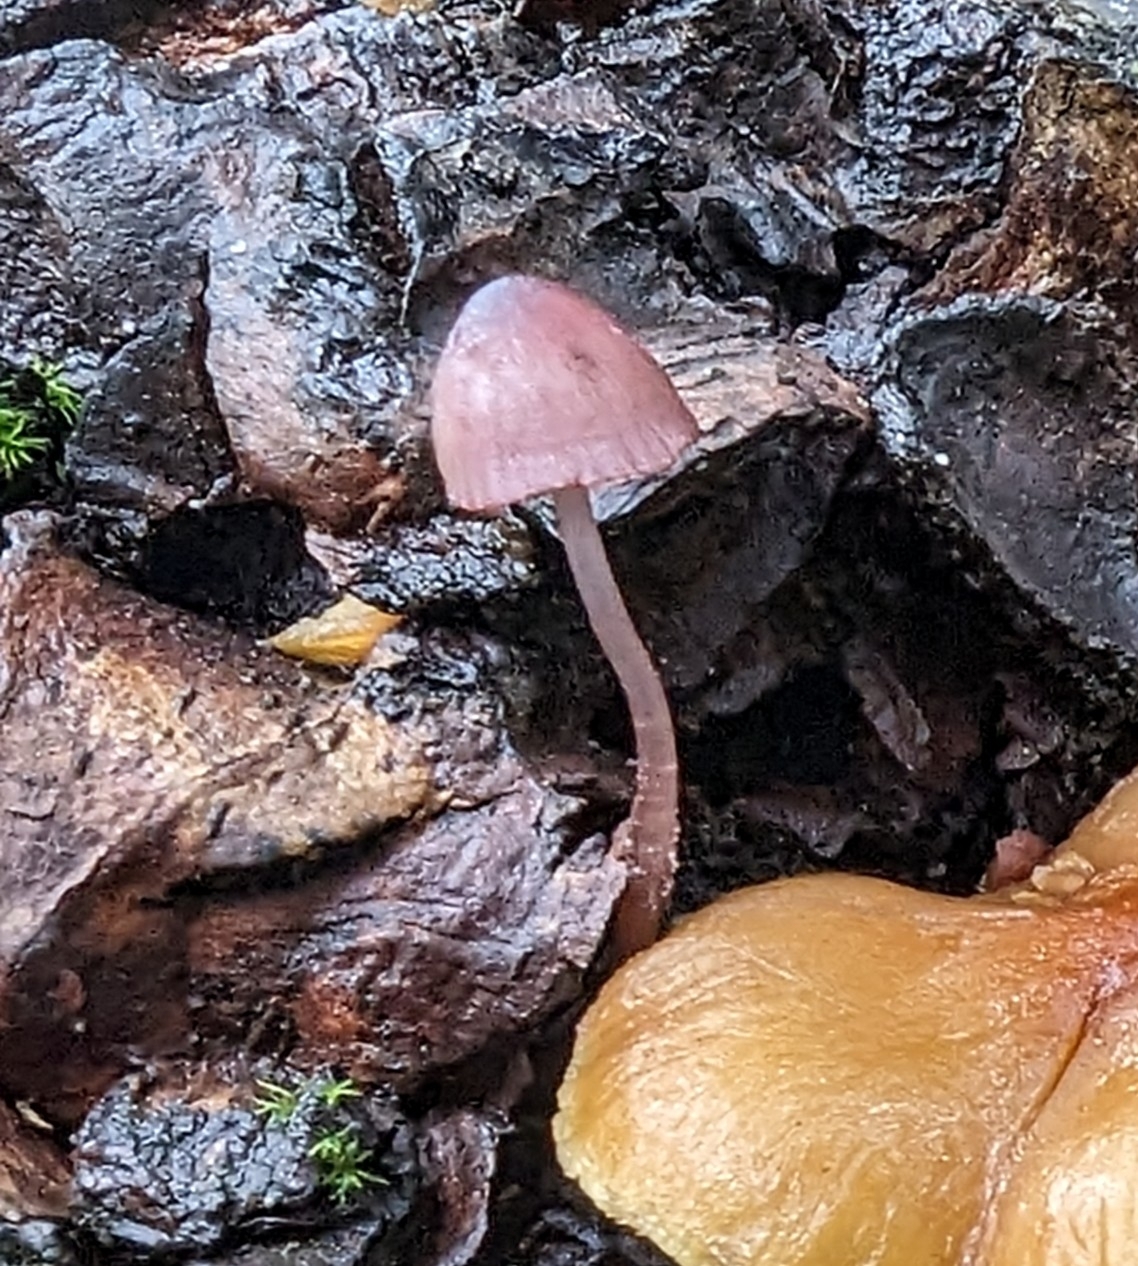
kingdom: Fungi
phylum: Basidiomycota
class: Agaricomycetes
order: Agaricales
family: Mycenaceae
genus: Mycena
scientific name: Mycena purpureofusca
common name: Purple edge bonnet
